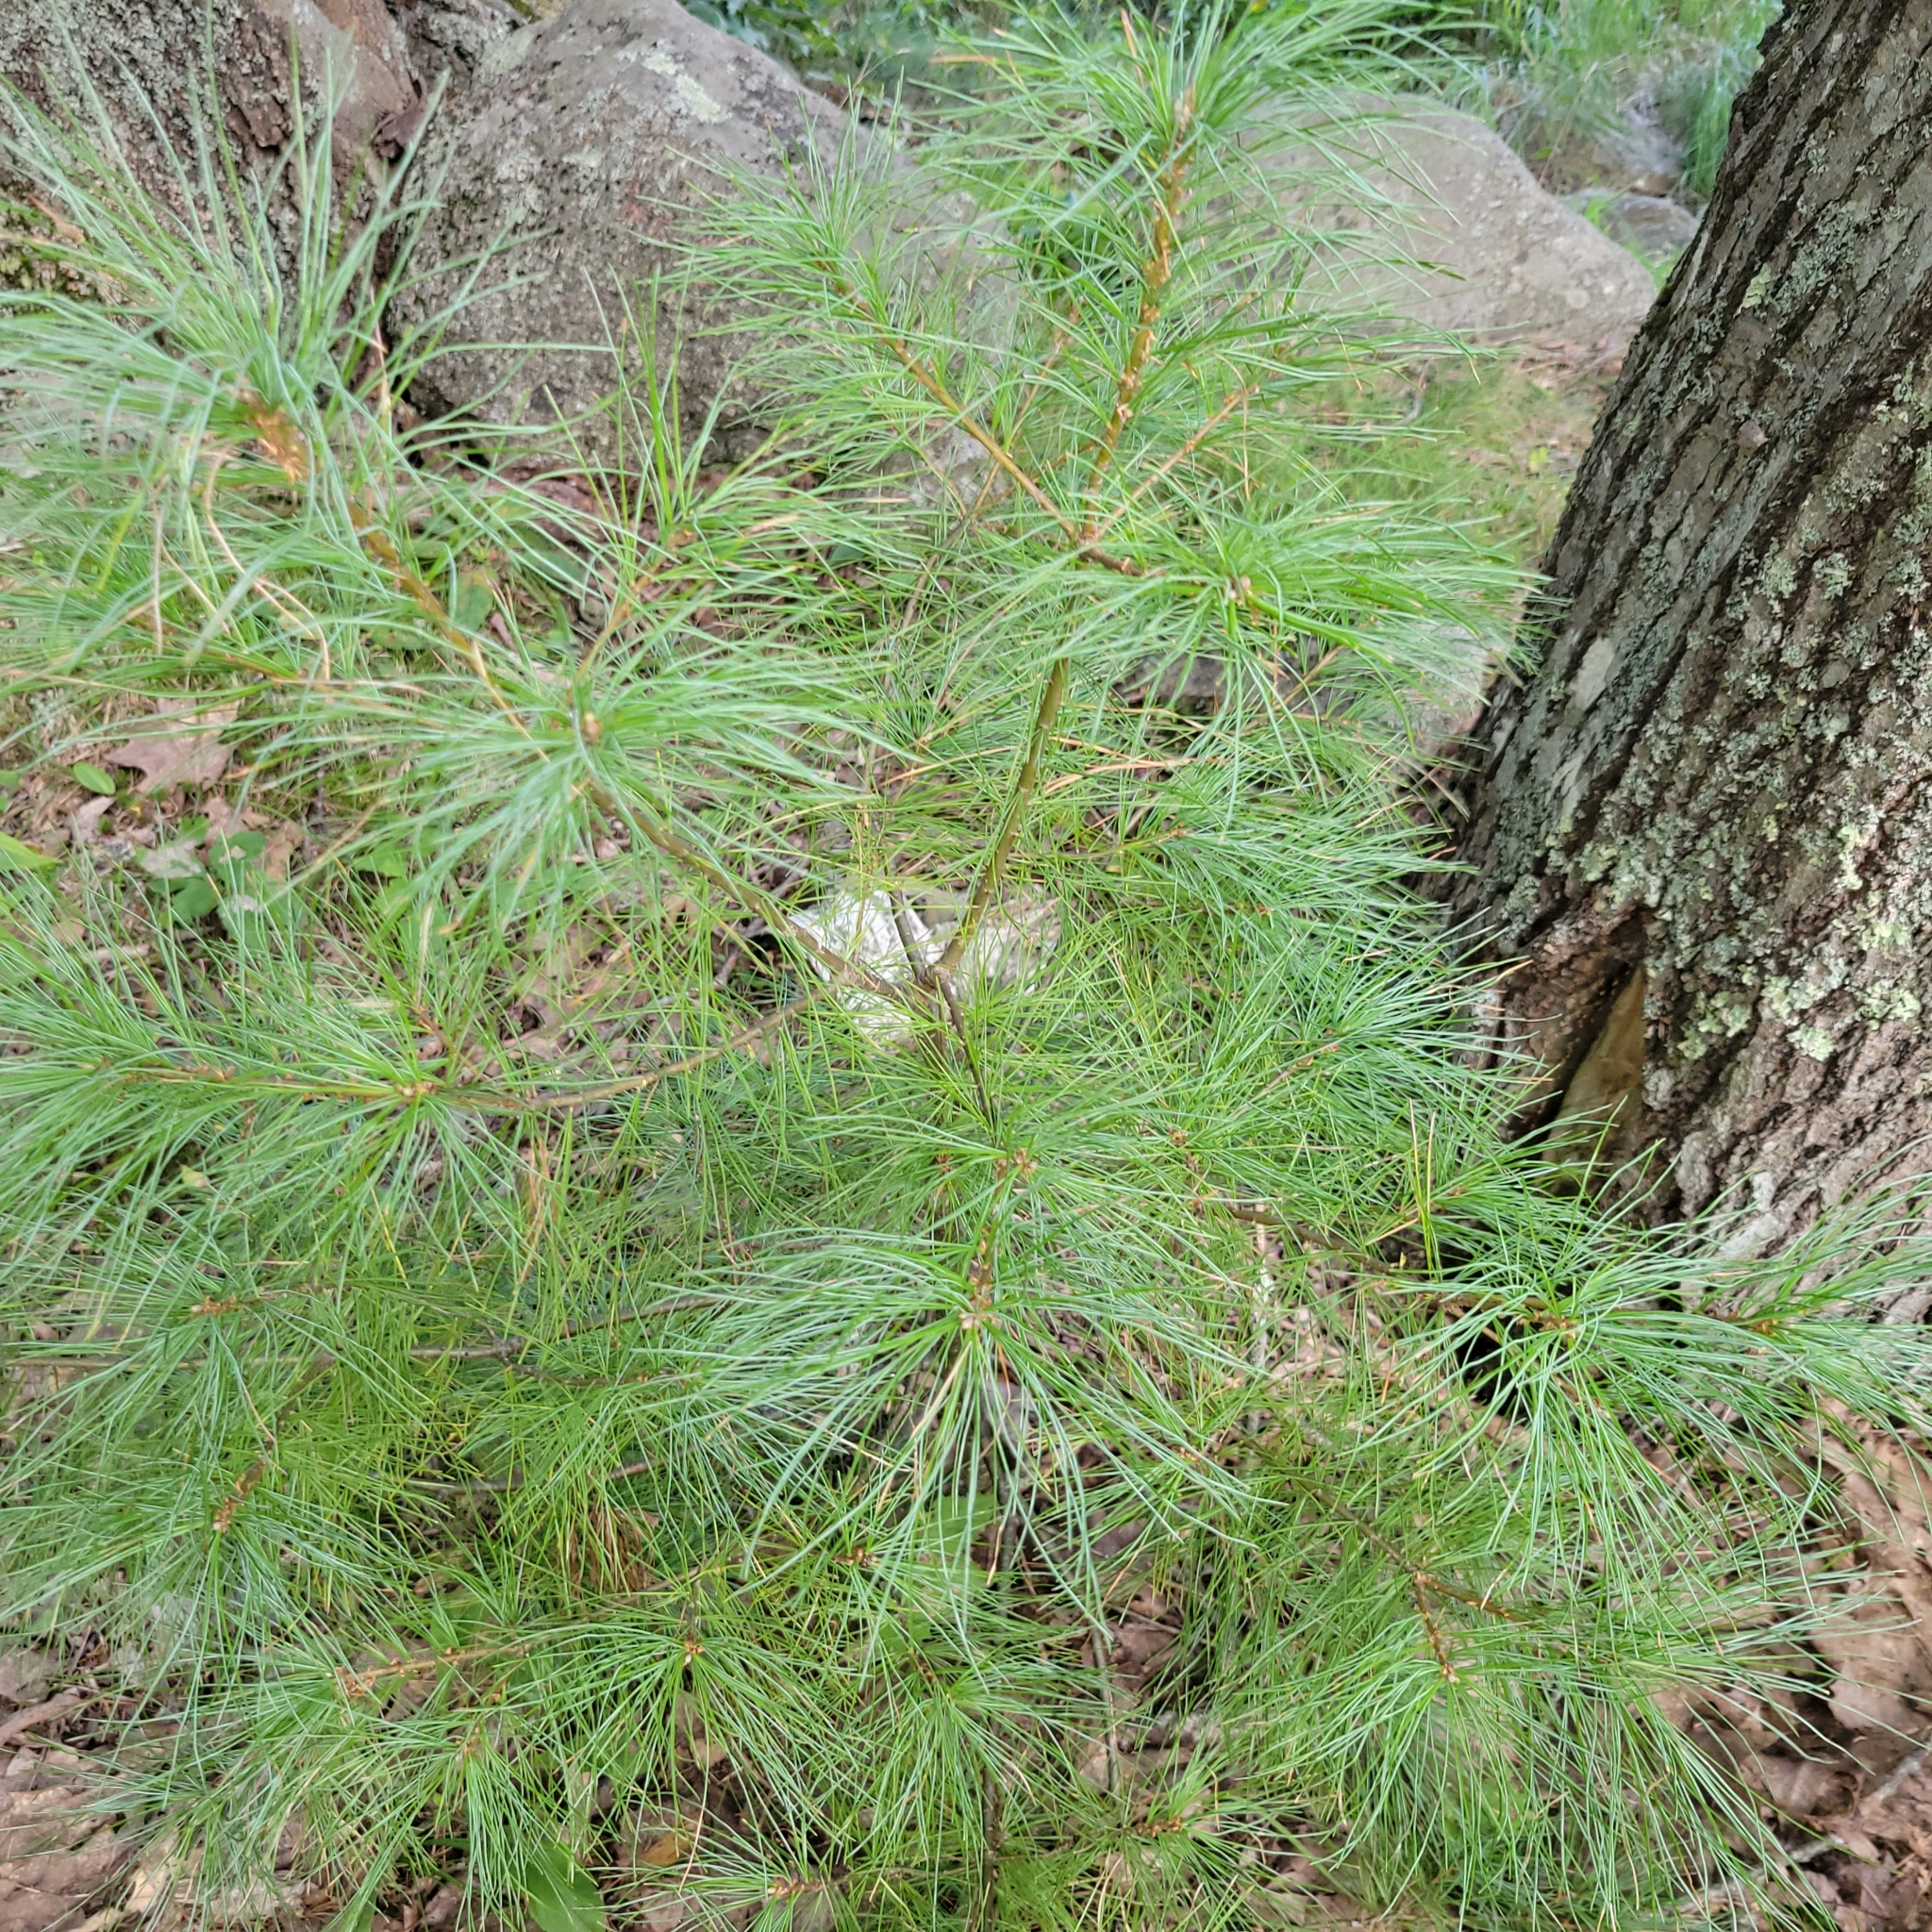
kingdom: Plantae
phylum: Tracheophyta
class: Pinopsida
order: Pinales
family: Pinaceae
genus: Pinus
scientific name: Pinus strobus
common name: Weymouth pine
